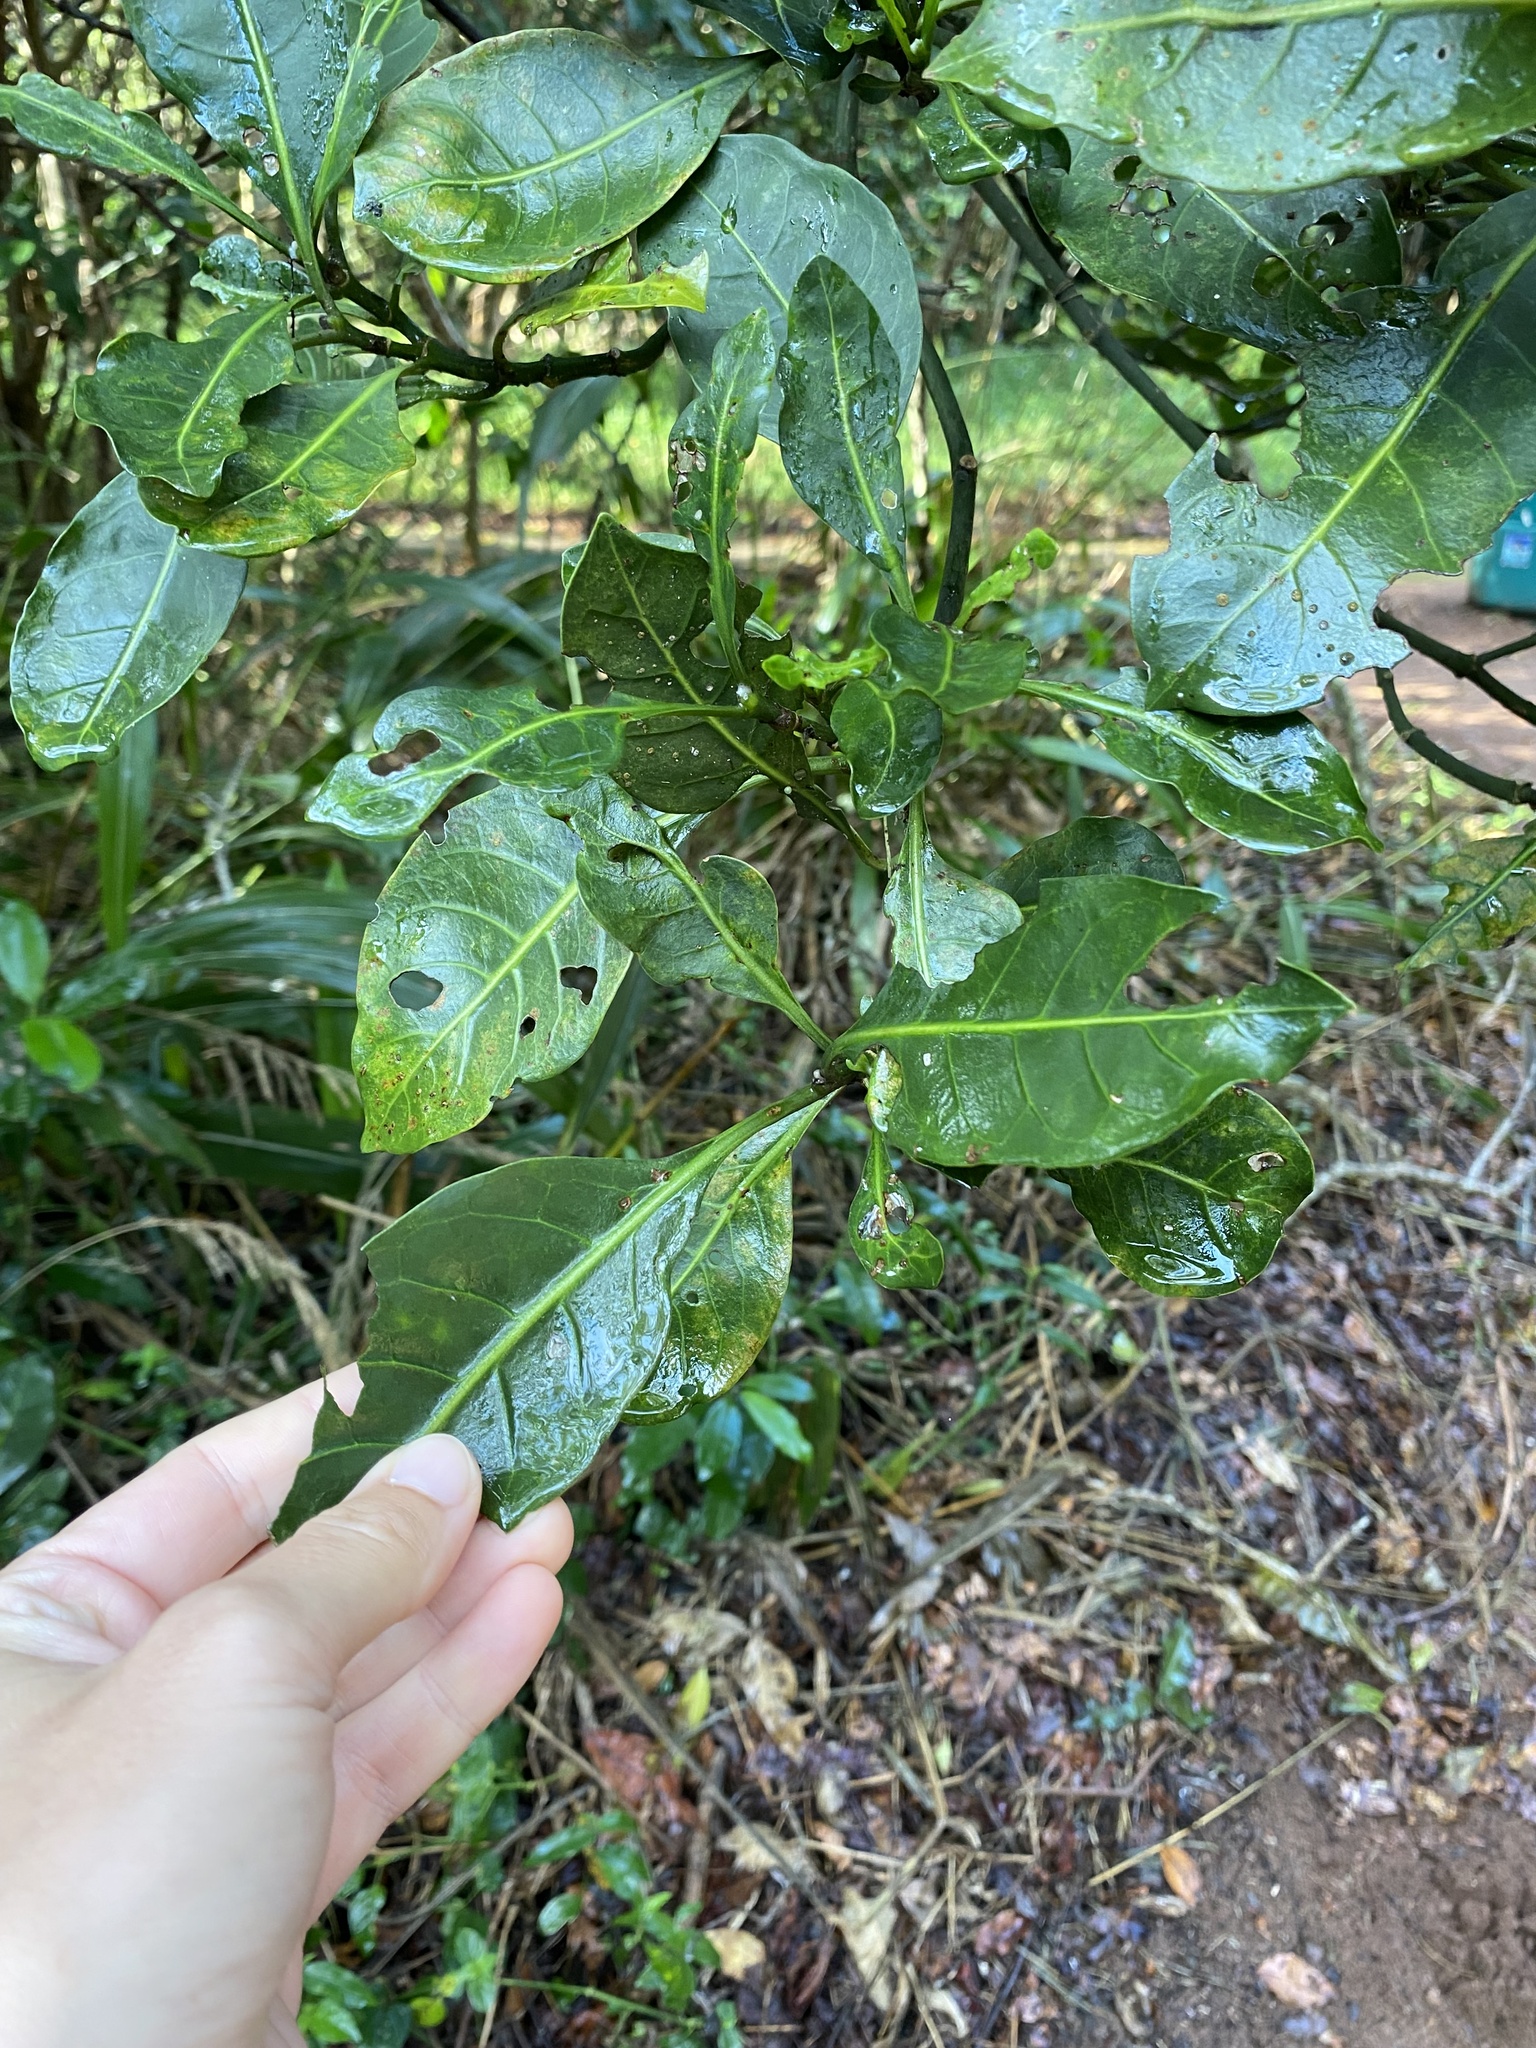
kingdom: Plantae
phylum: Tracheophyta
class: Magnoliopsida
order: Gentianales
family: Rubiaceae
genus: Psychotria
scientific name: Psychotria capensis
